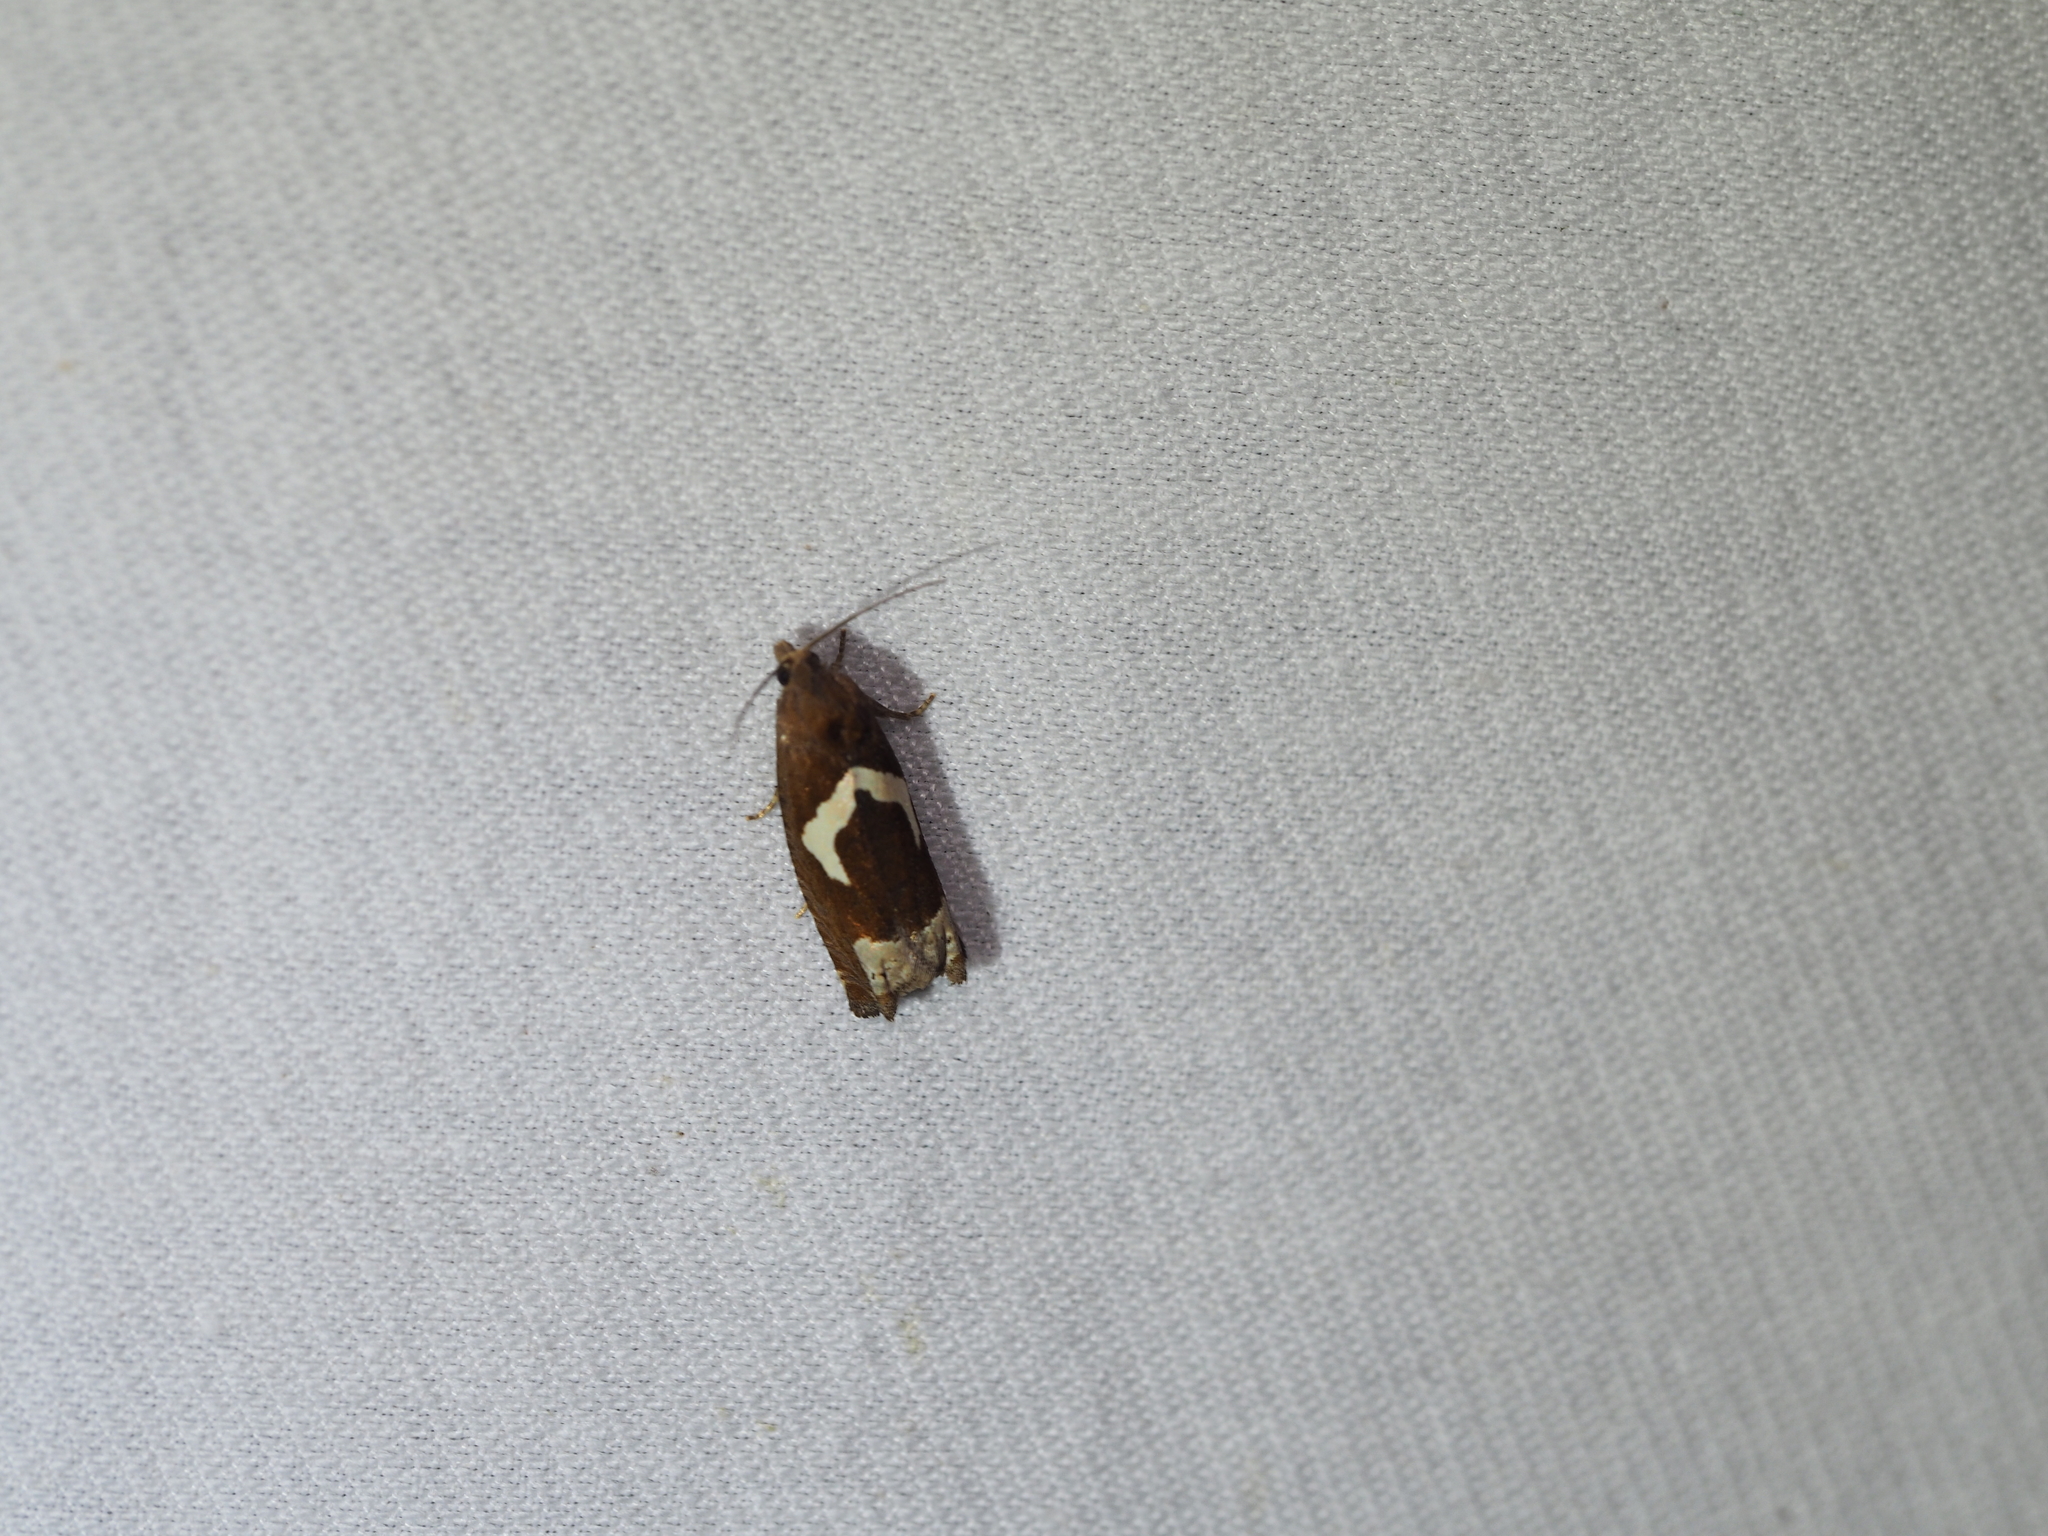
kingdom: Animalia
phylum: Arthropoda
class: Insecta
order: Lepidoptera
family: Tortricidae
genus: Epiblema
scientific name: Epiblema foenella
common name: White-foot bell
